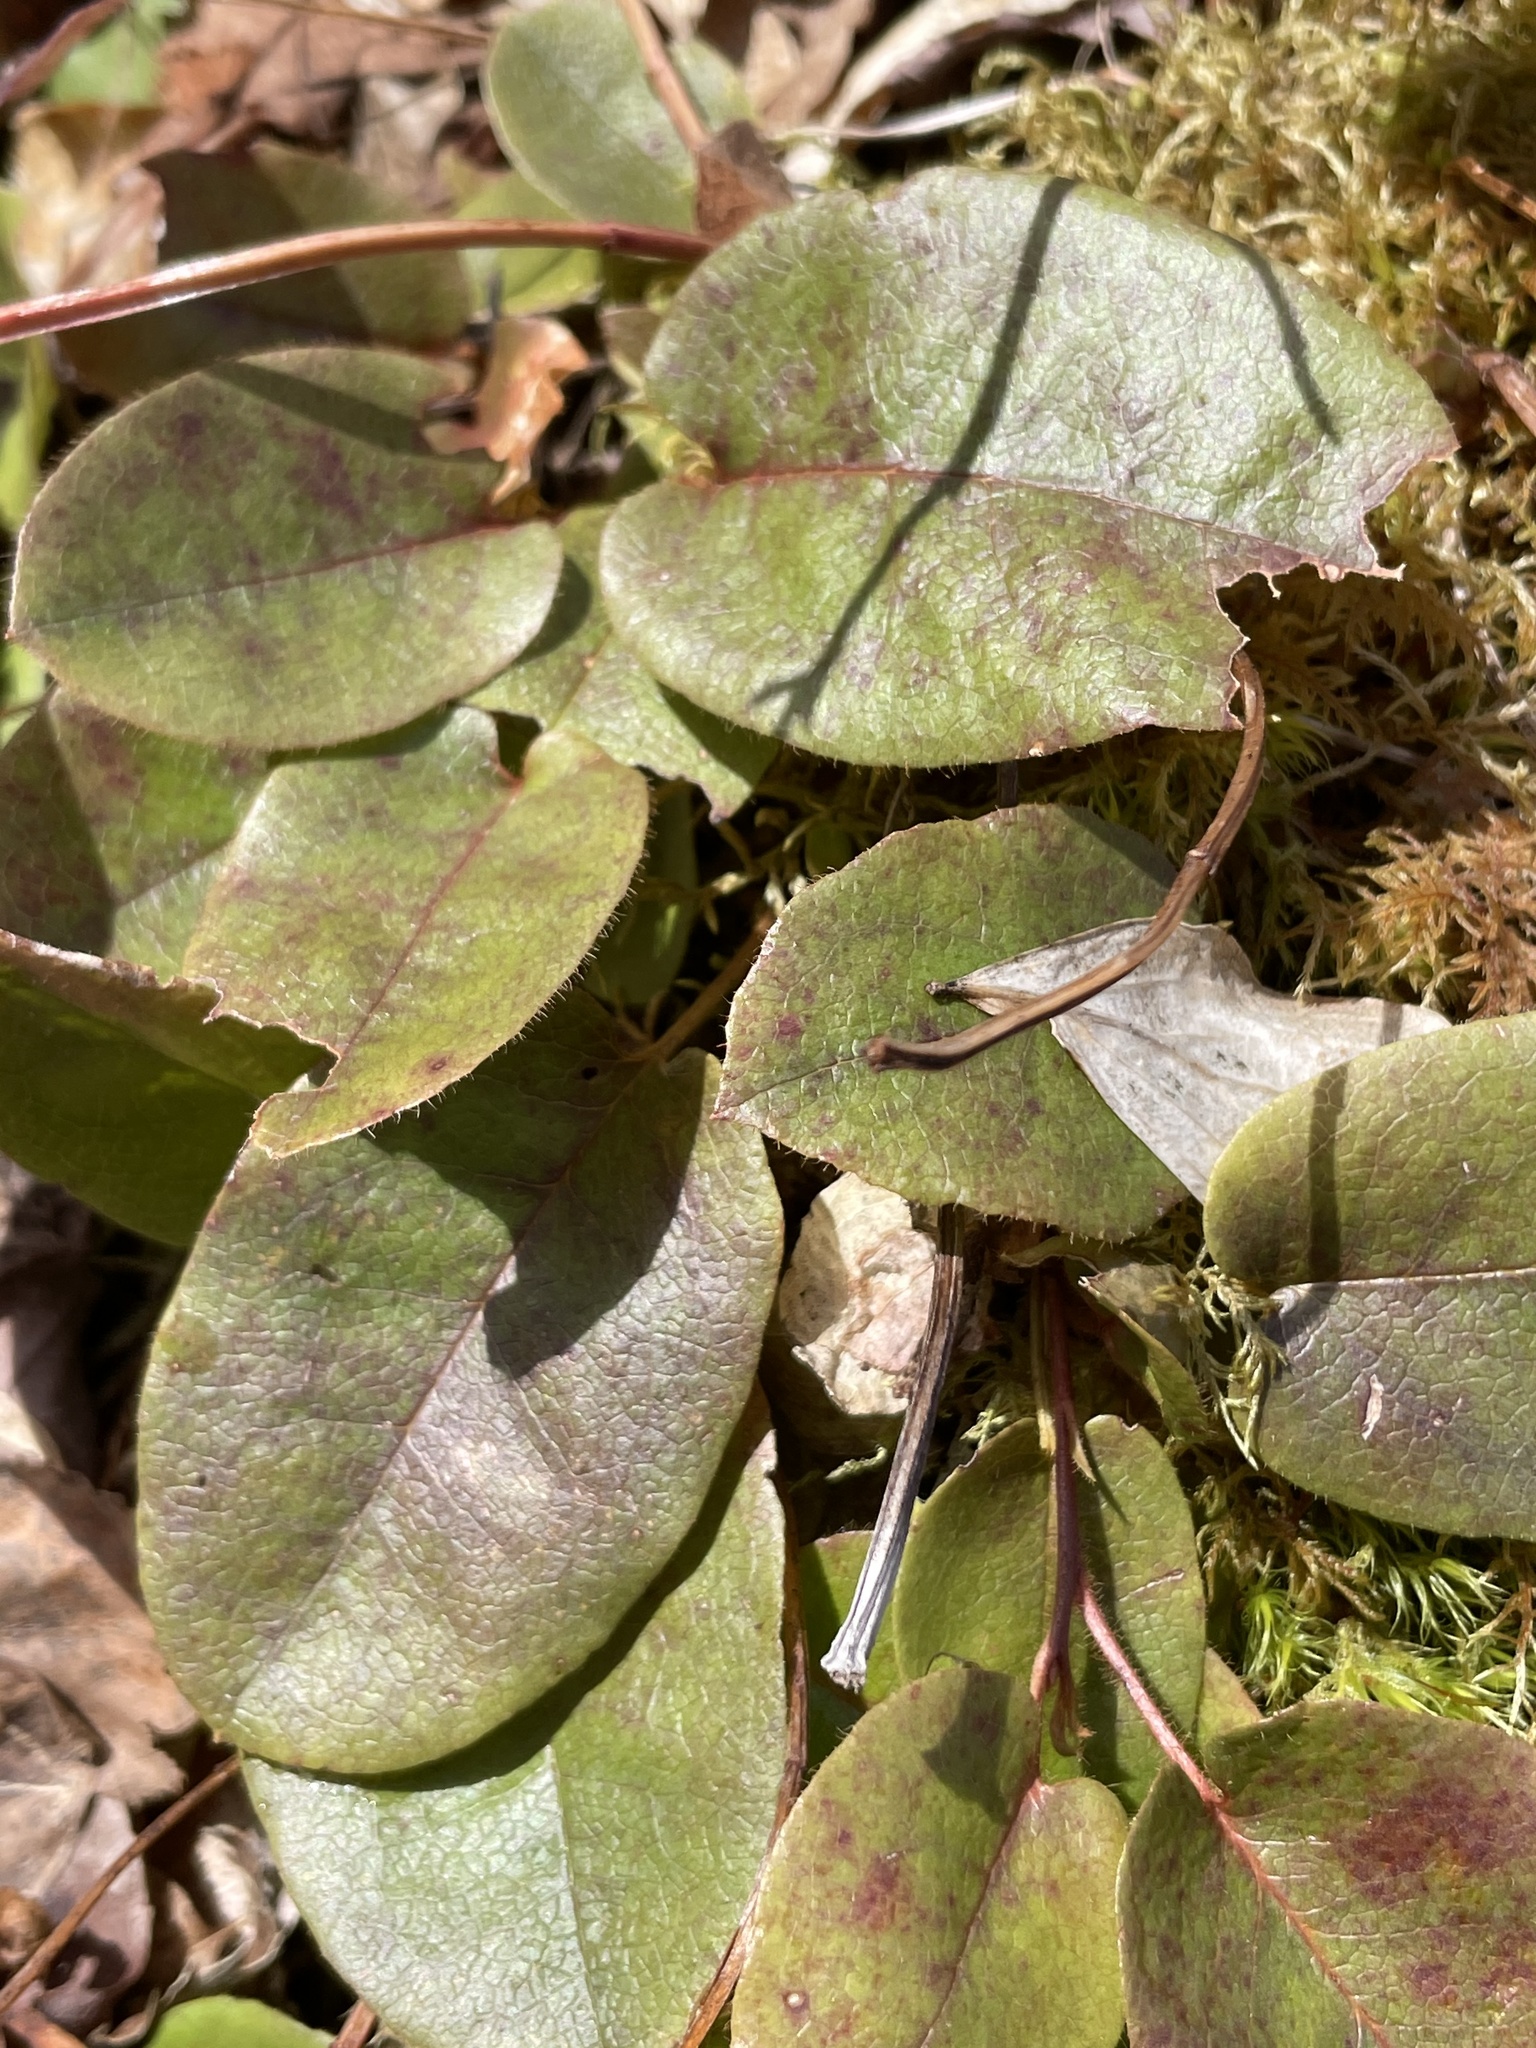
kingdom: Plantae
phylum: Tracheophyta
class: Magnoliopsida
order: Ericales
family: Ericaceae
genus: Epigaea
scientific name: Epigaea repens
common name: Gravelroot
